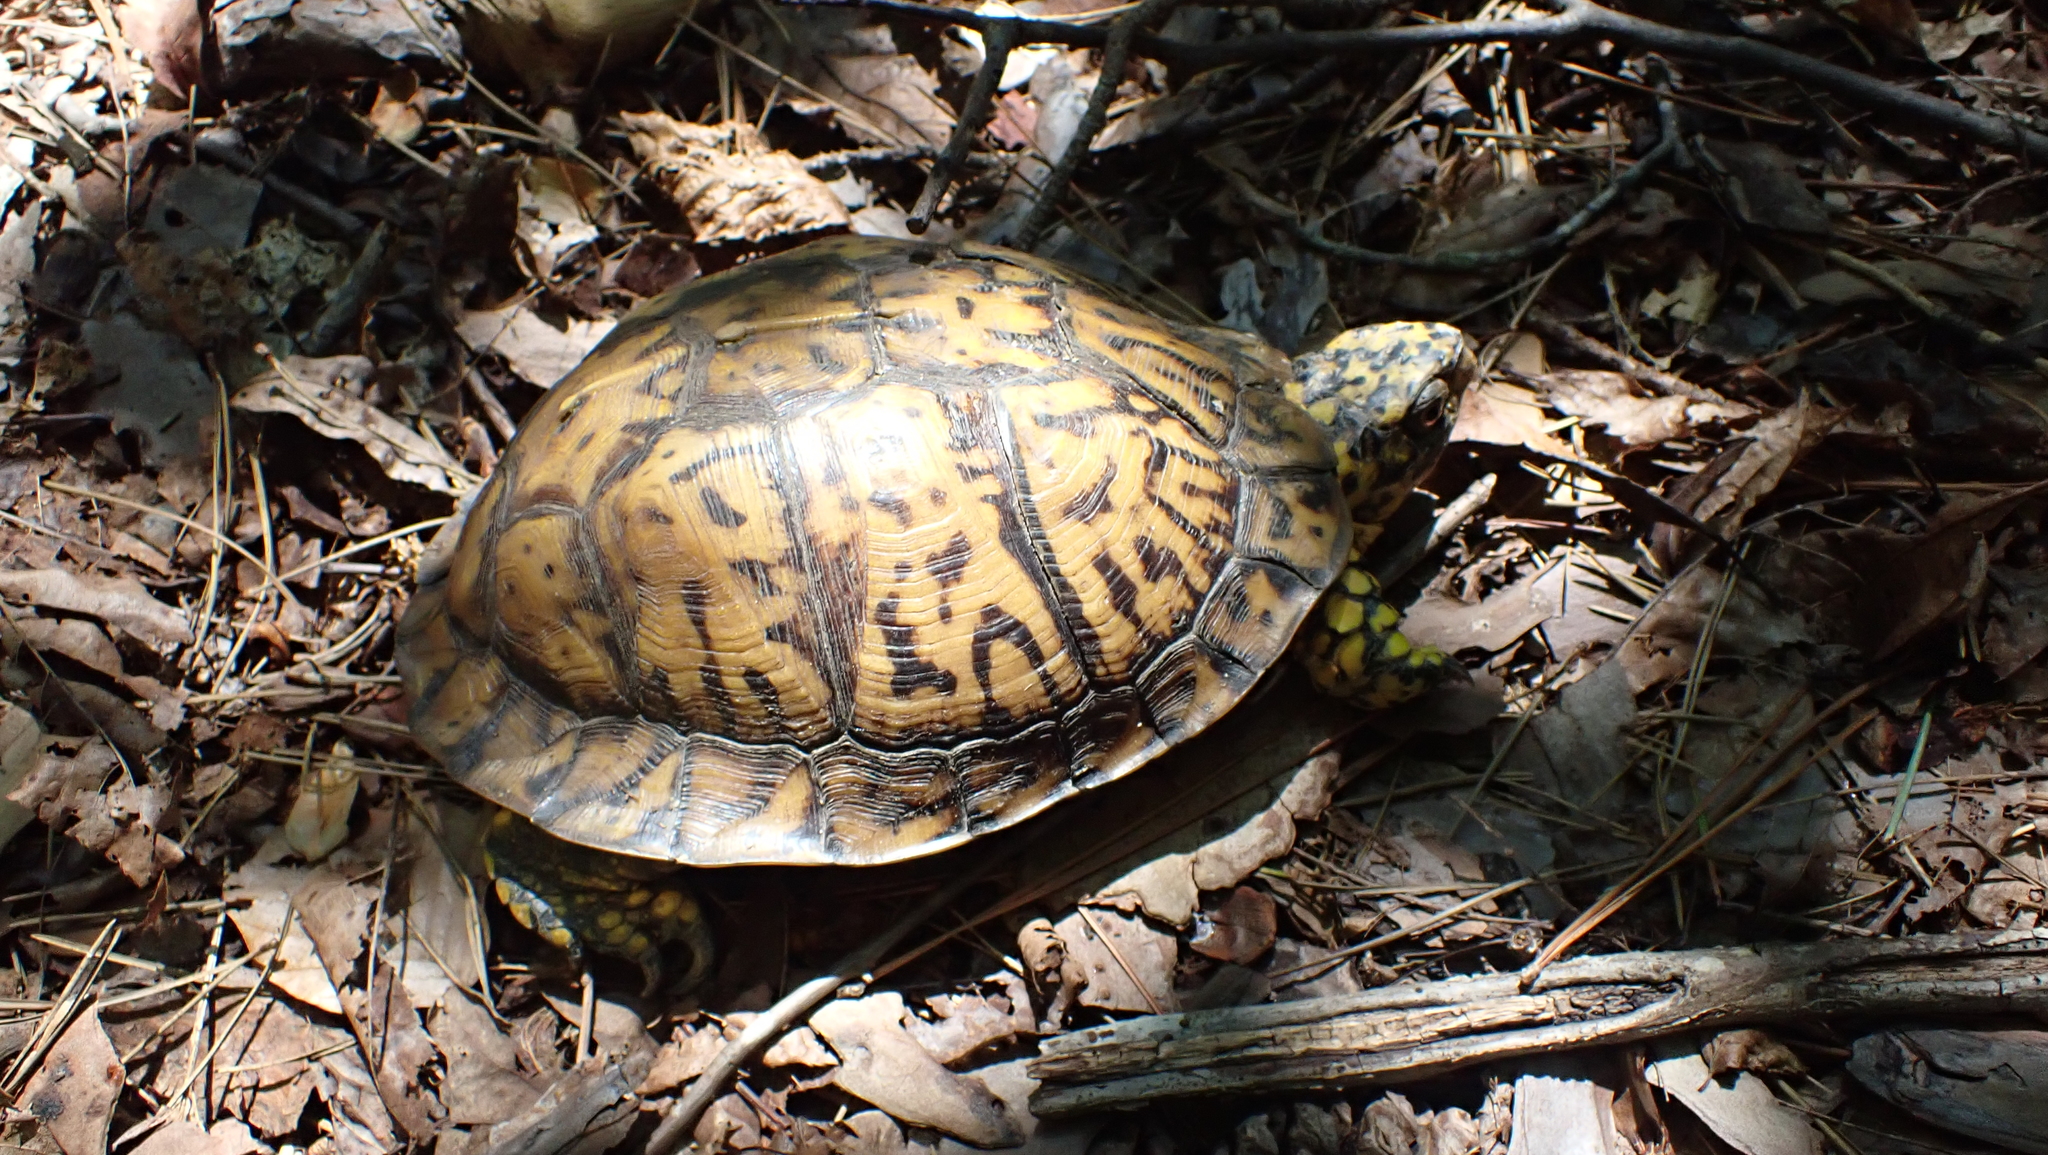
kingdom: Animalia
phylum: Chordata
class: Testudines
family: Emydidae
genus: Terrapene
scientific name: Terrapene carolina
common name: Common box turtle
